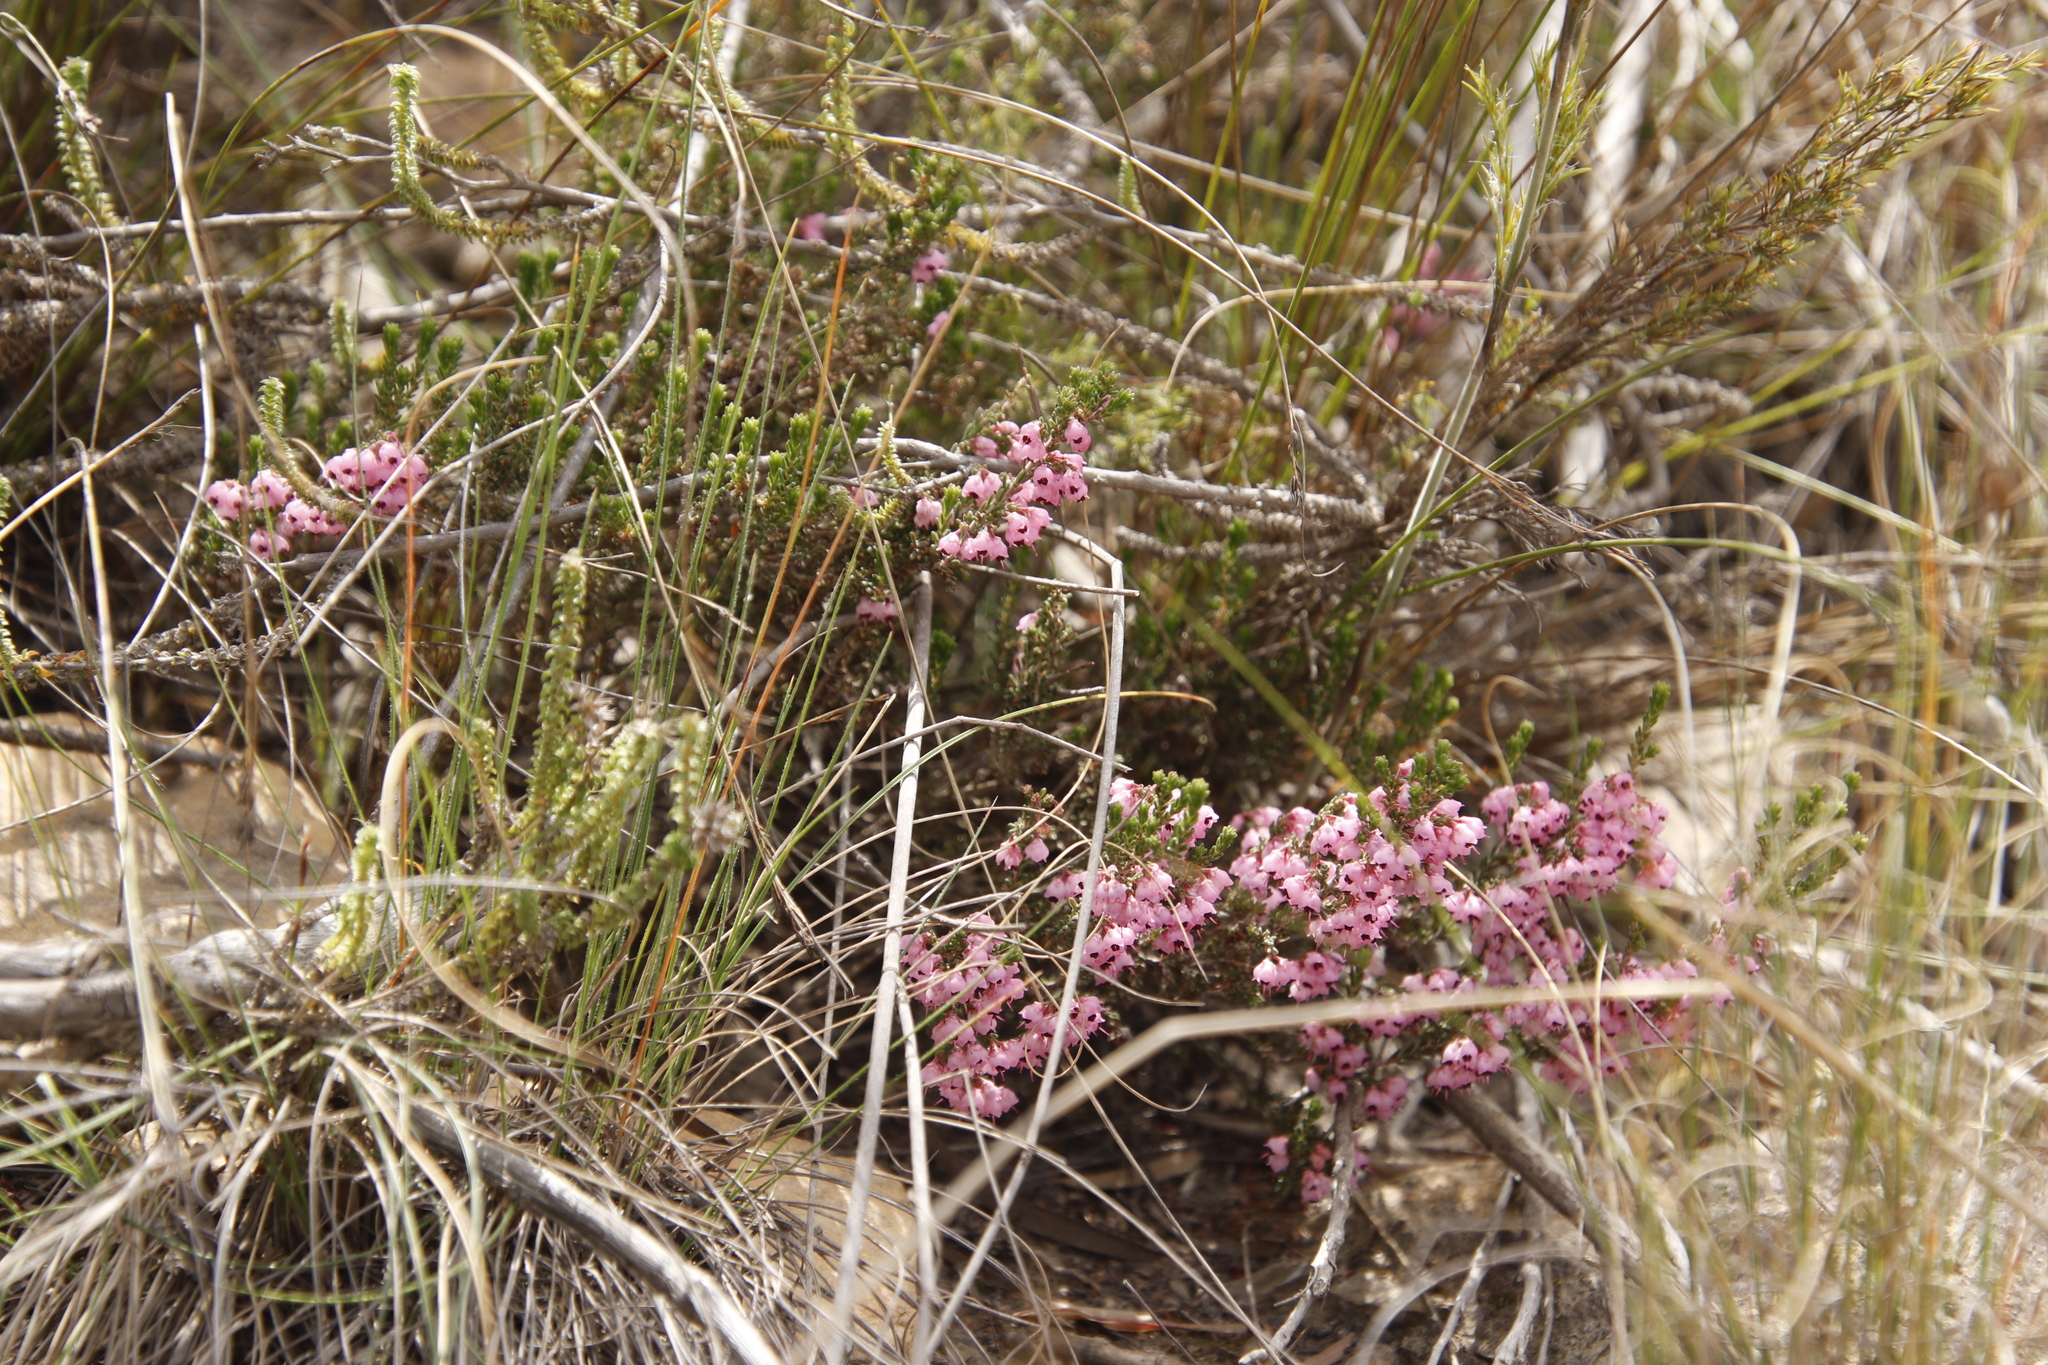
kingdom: Plantae
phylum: Tracheophyta
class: Magnoliopsida
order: Ericales
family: Ericaceae
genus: Erica
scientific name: Erica umbelliflora
